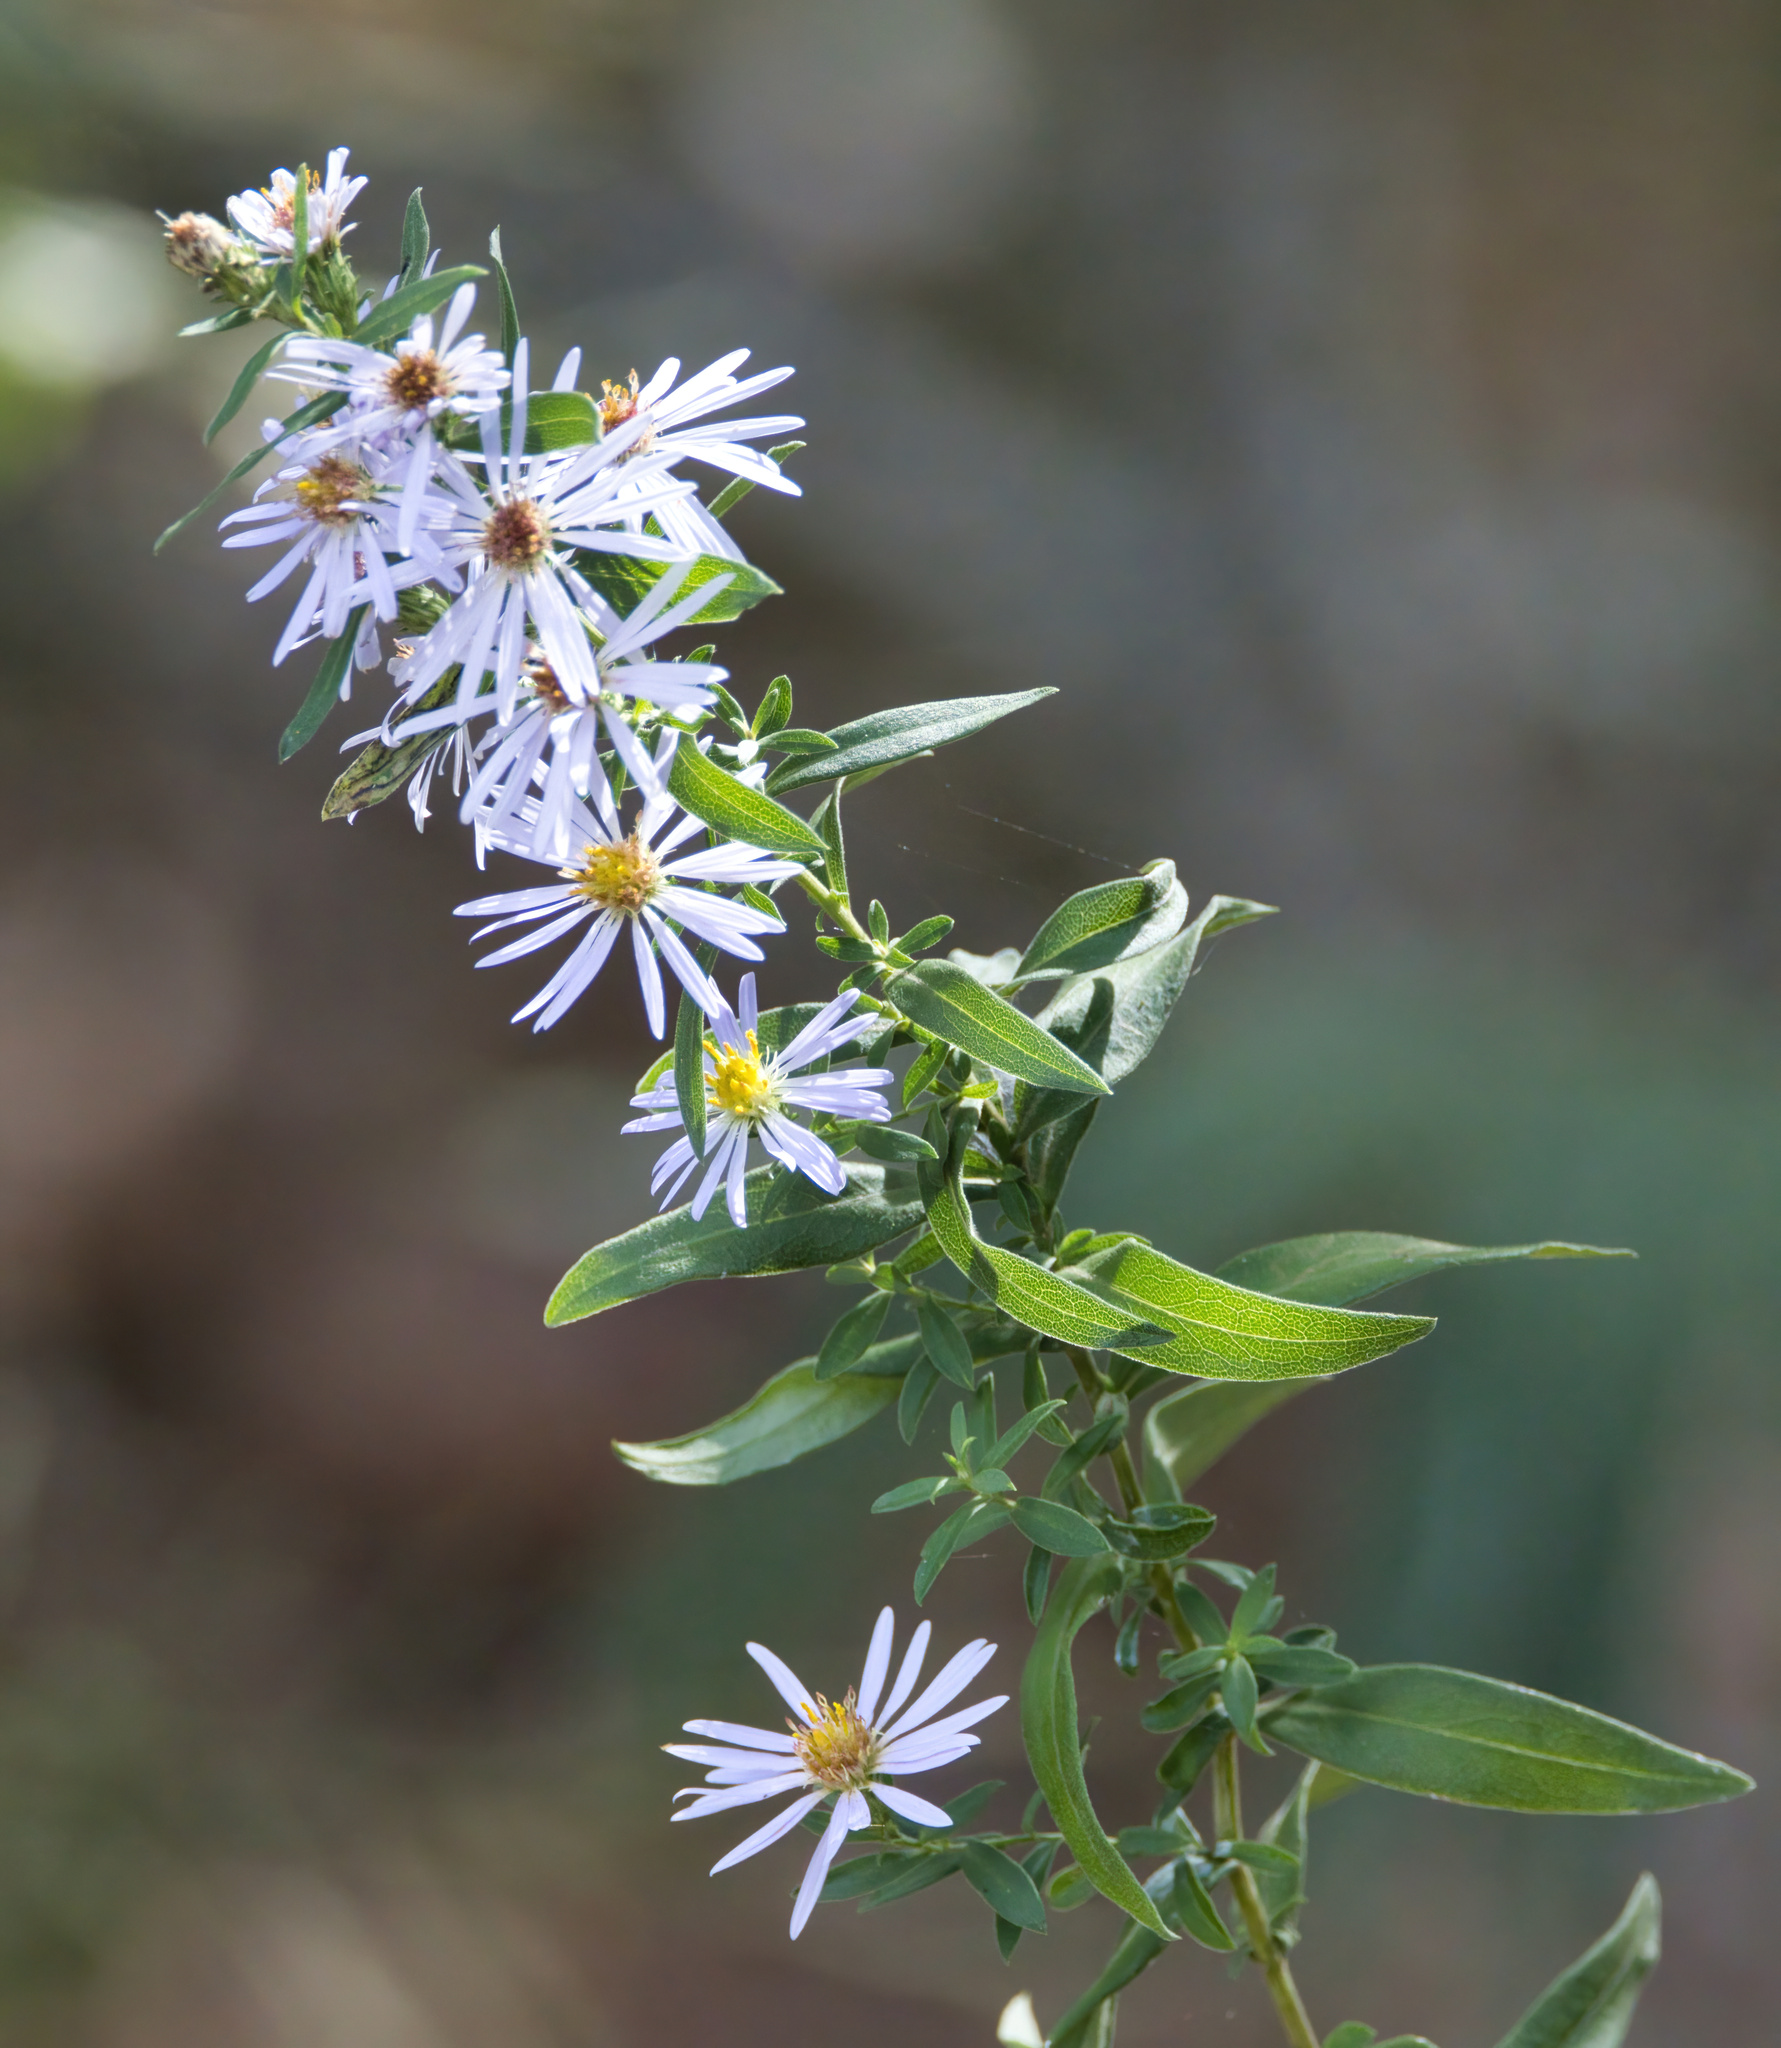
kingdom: Plantae
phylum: Tracheophyta
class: Magnoliopsida
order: Asterales
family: Asteraceae
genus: Symphyotrichum
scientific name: Symphyotrichum praealtum
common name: Willow aster
